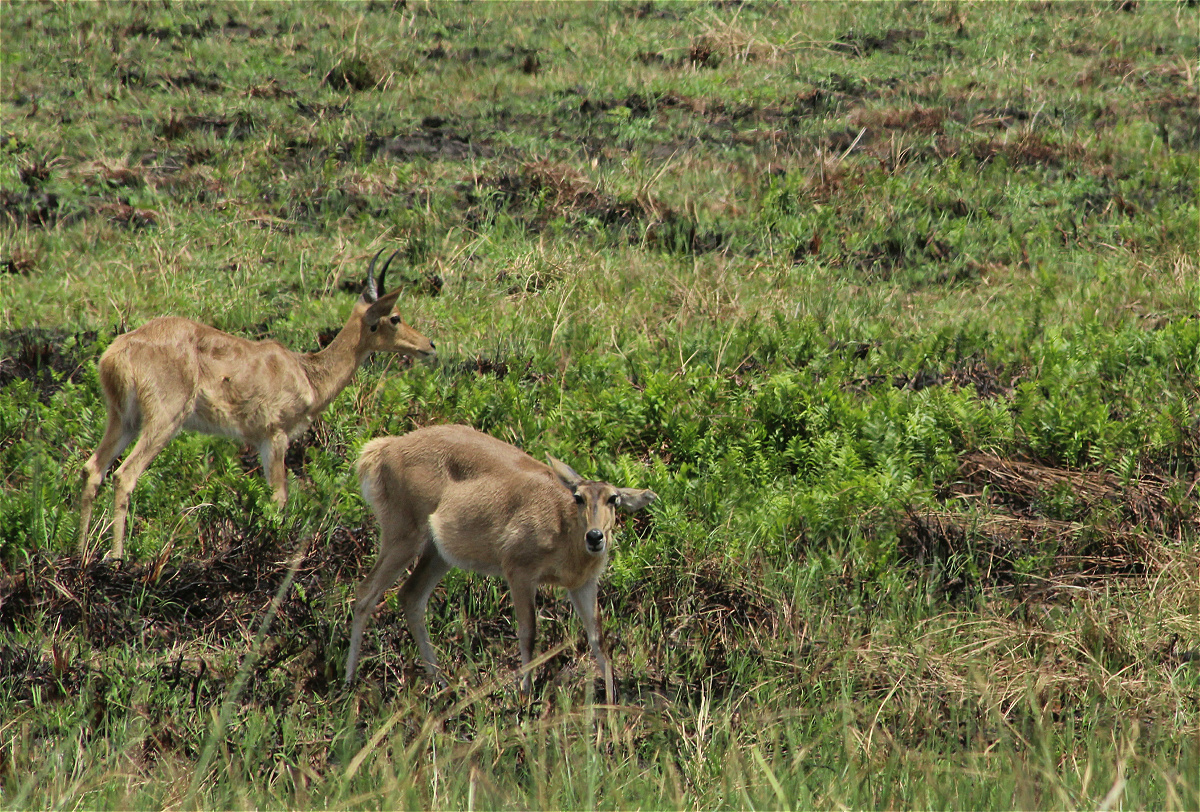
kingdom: Animalia
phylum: Chordata
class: Mammalia
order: Artiodactyla
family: Bovidae
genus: Redunca
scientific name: Redunca arundinum
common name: Southern reedbuck
